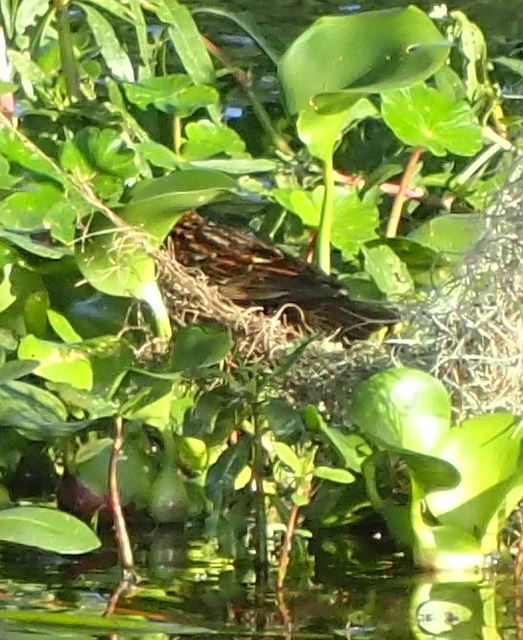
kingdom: Animalia
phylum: Chordata
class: Aves
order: Passeriformes
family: Icteridae
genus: Agelaius
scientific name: Agelaius phoeniceus
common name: Red-winged blackbird
